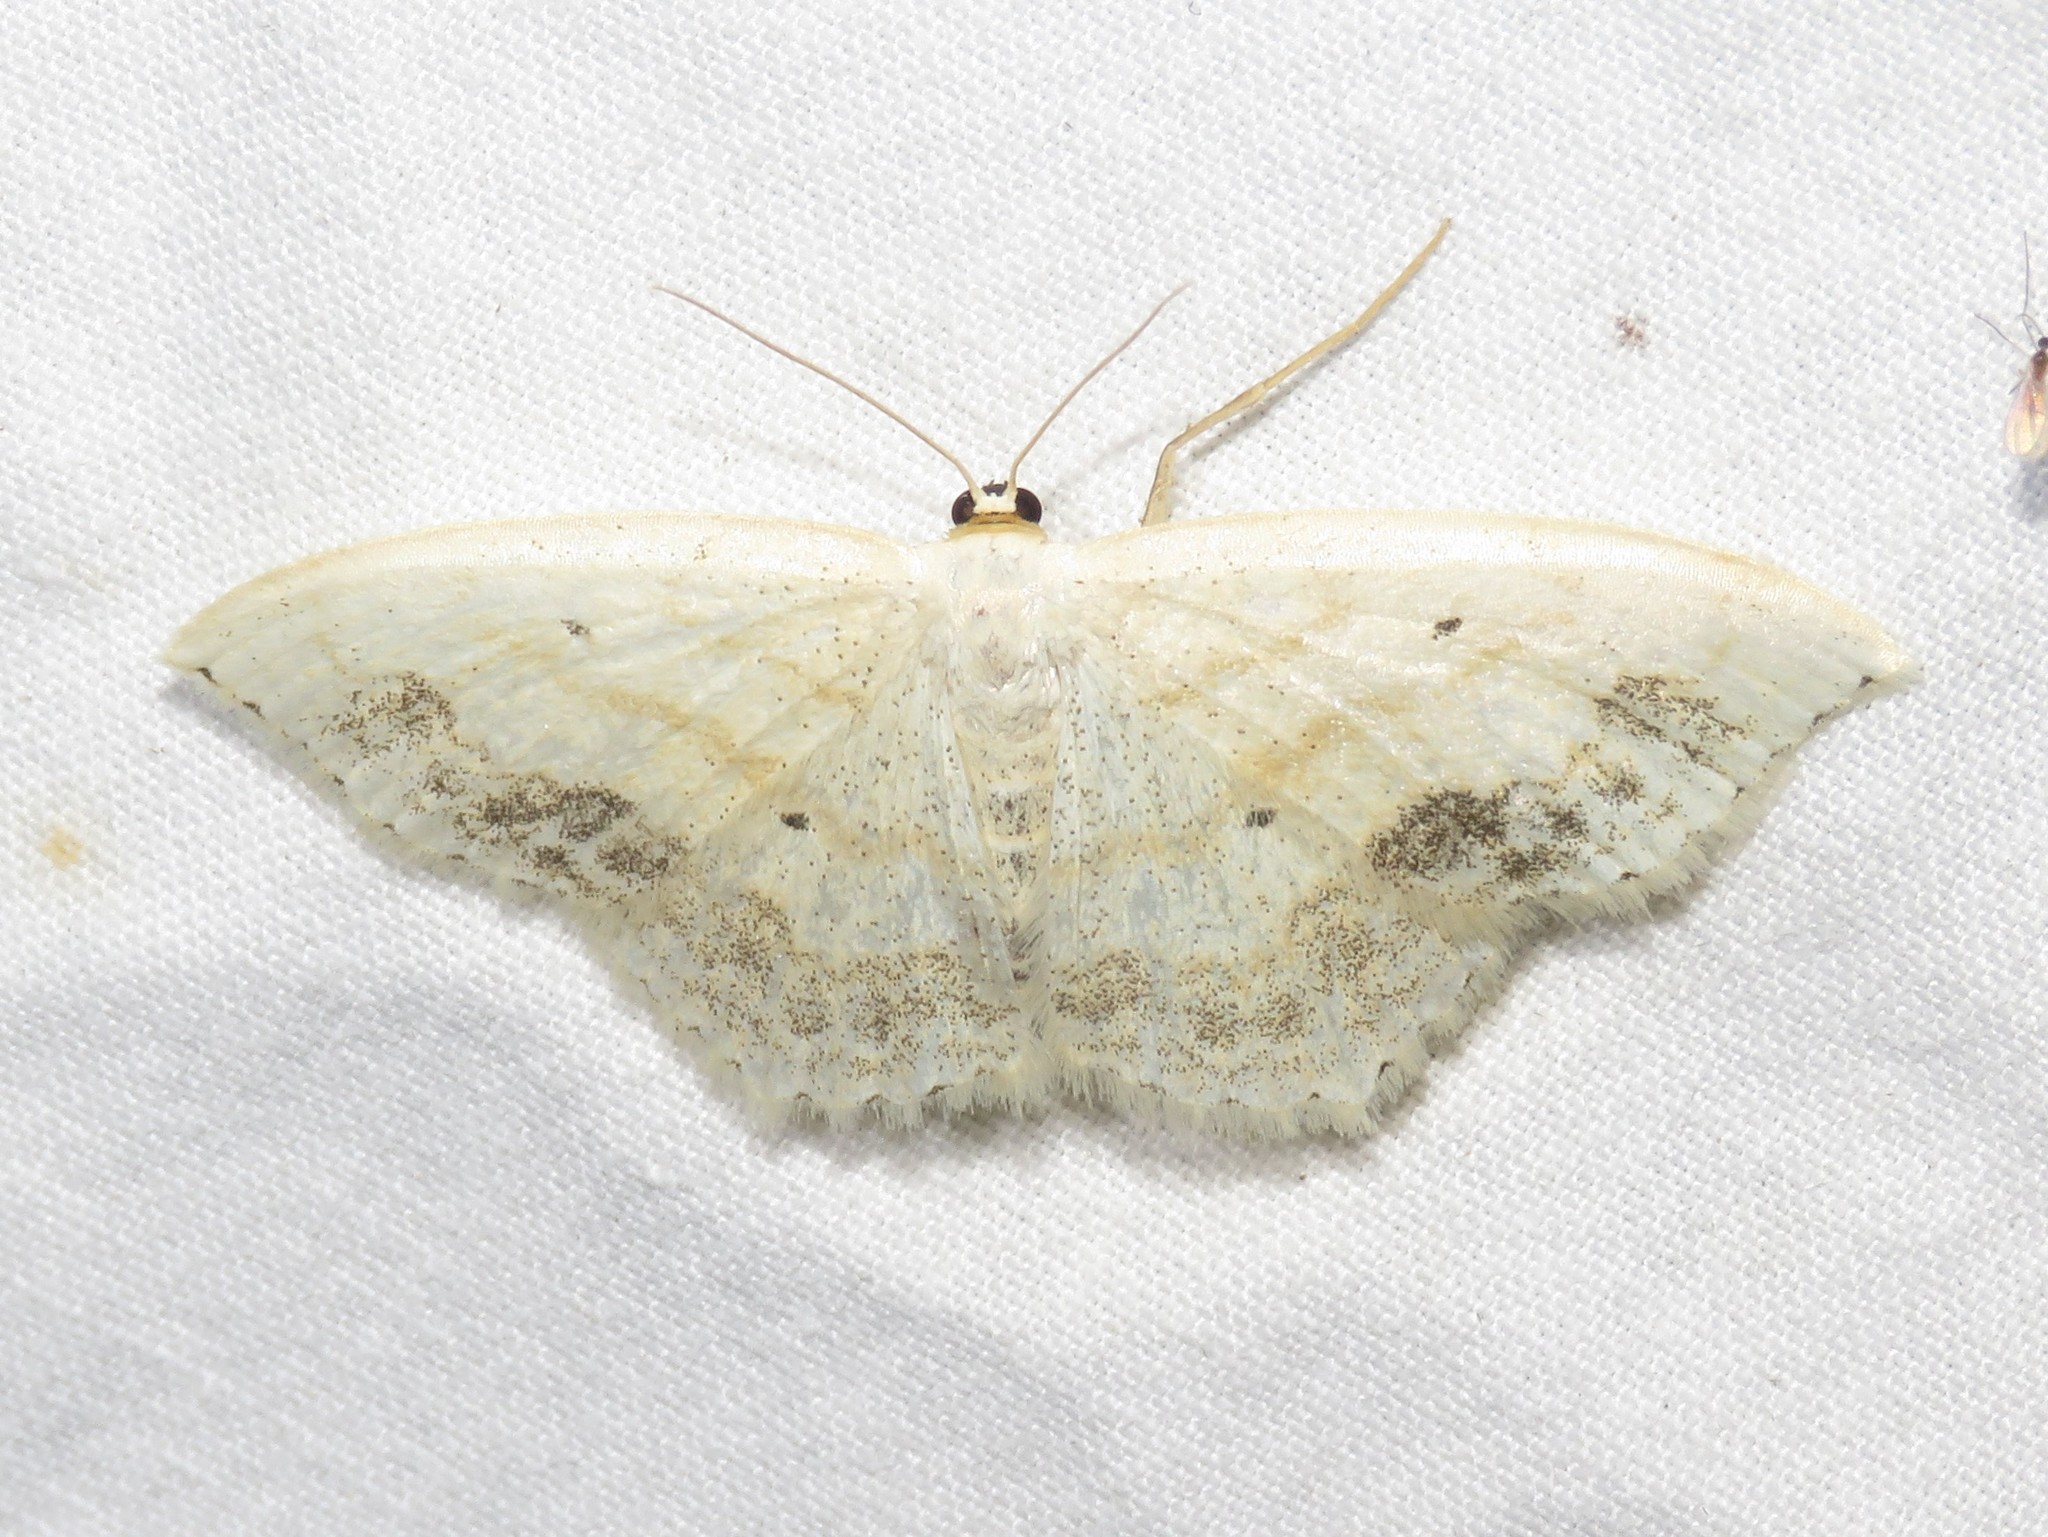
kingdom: Animalia
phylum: Arthropoda
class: Insecta
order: Lepidoptera
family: Geometridae
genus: Scopula
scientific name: Scopula limboundata
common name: Large lace border
